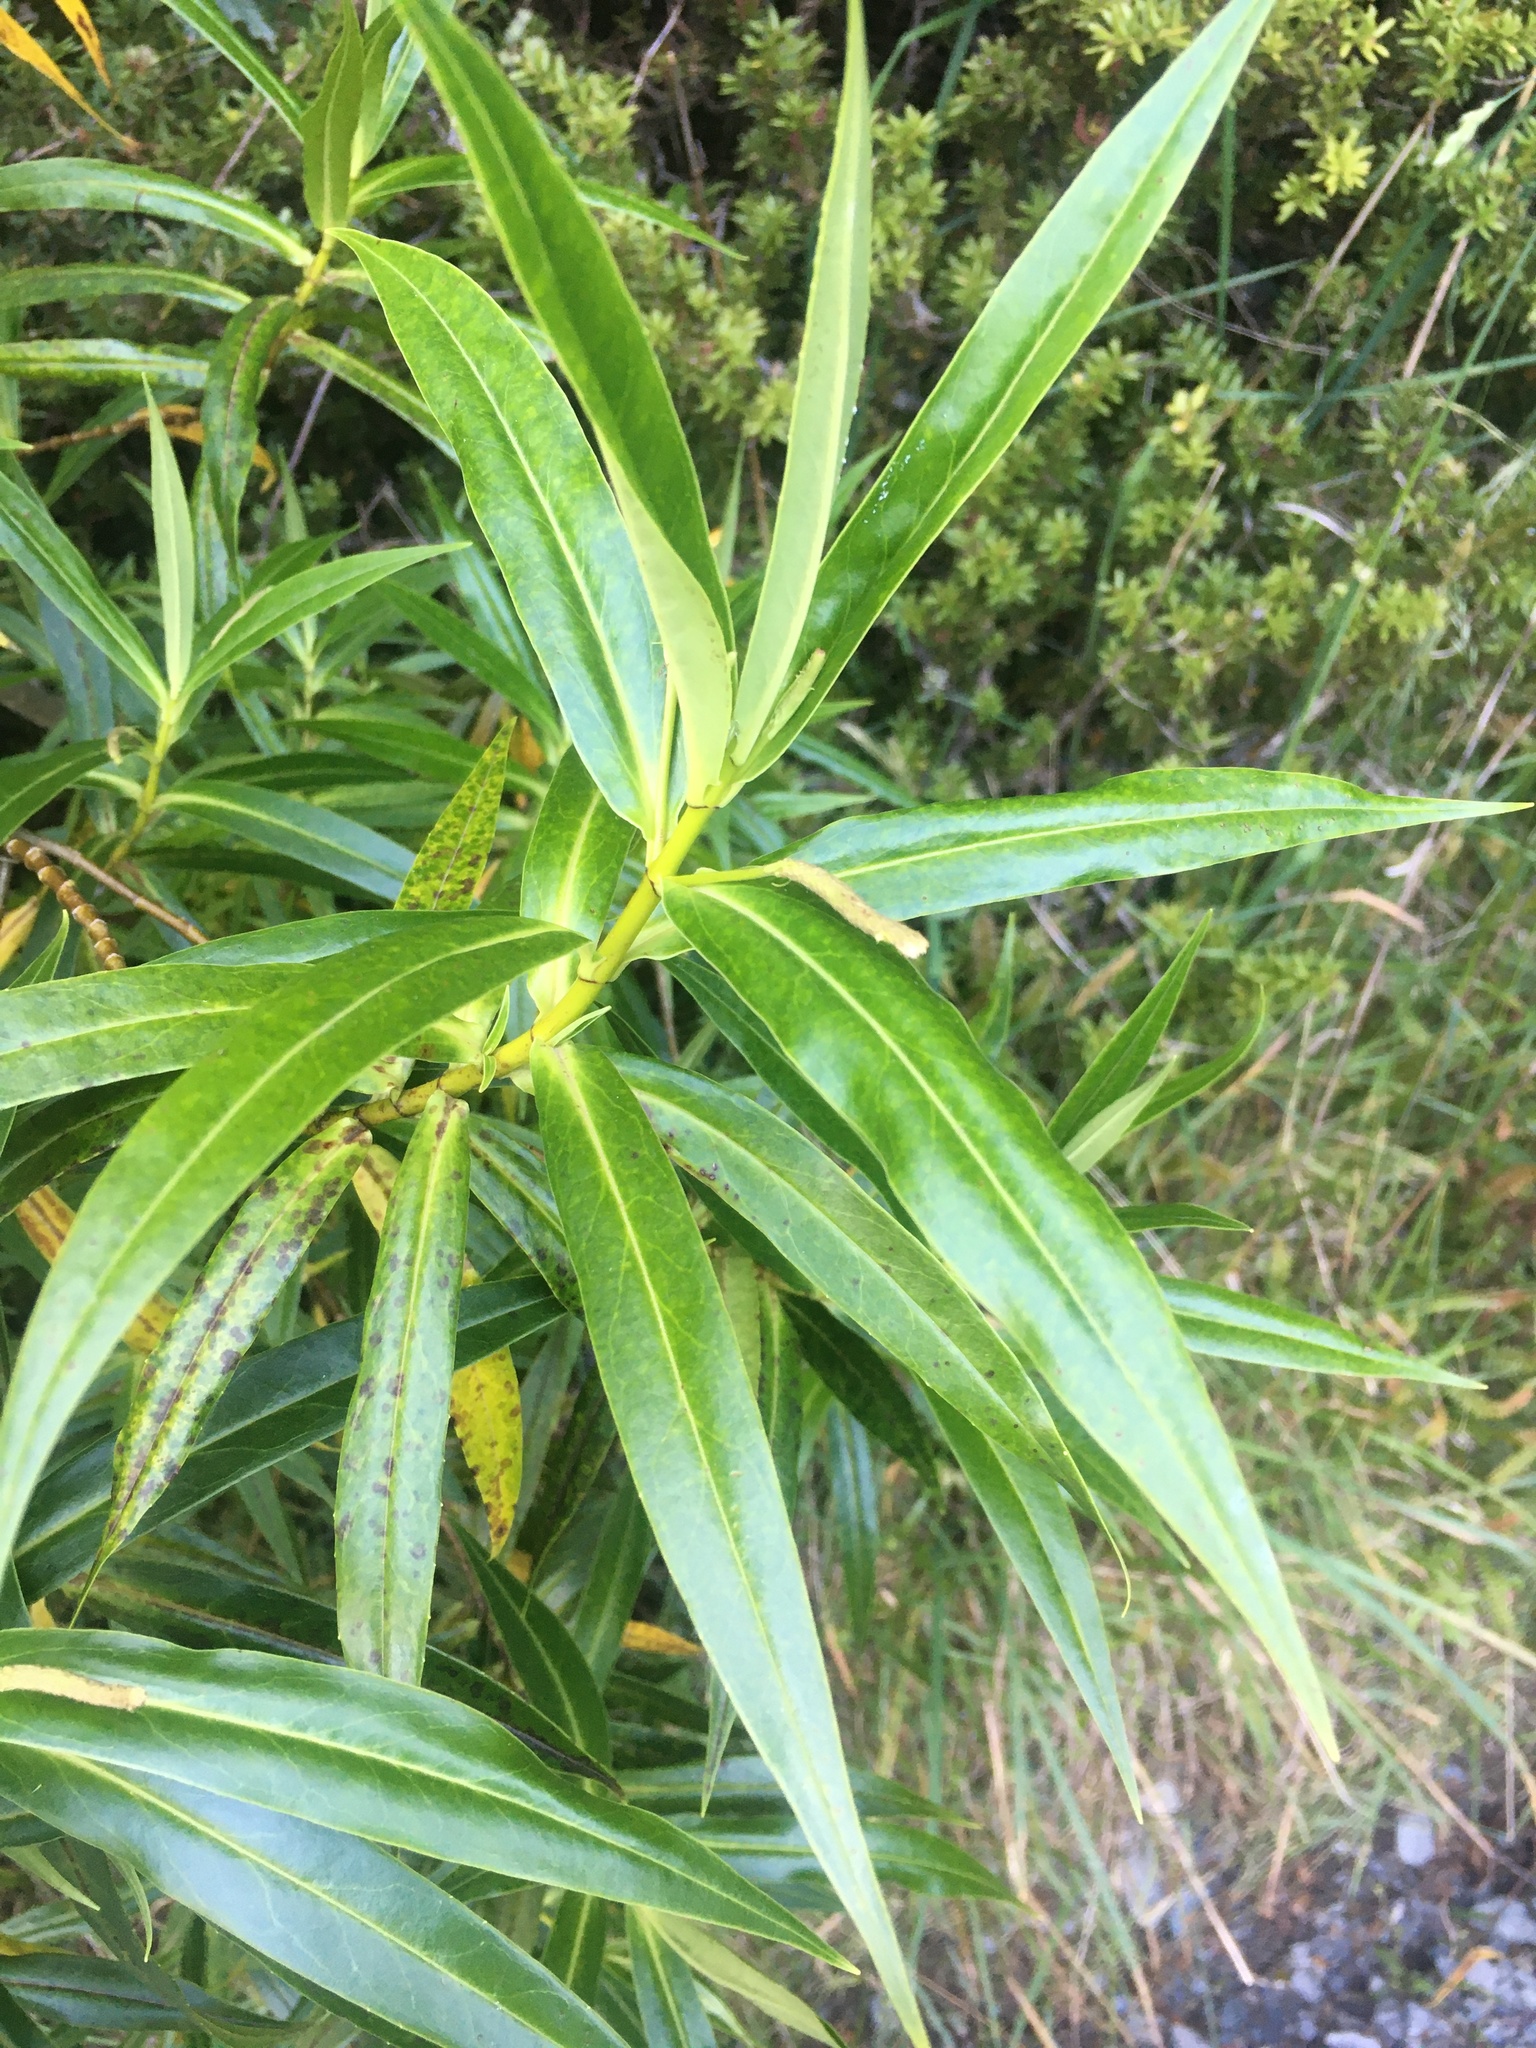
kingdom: Plantae
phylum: Tracheophyta
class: Magnoliopsida
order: Lamiales
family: Plantaginaceae
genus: Veronica
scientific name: Veronica salicifolia
